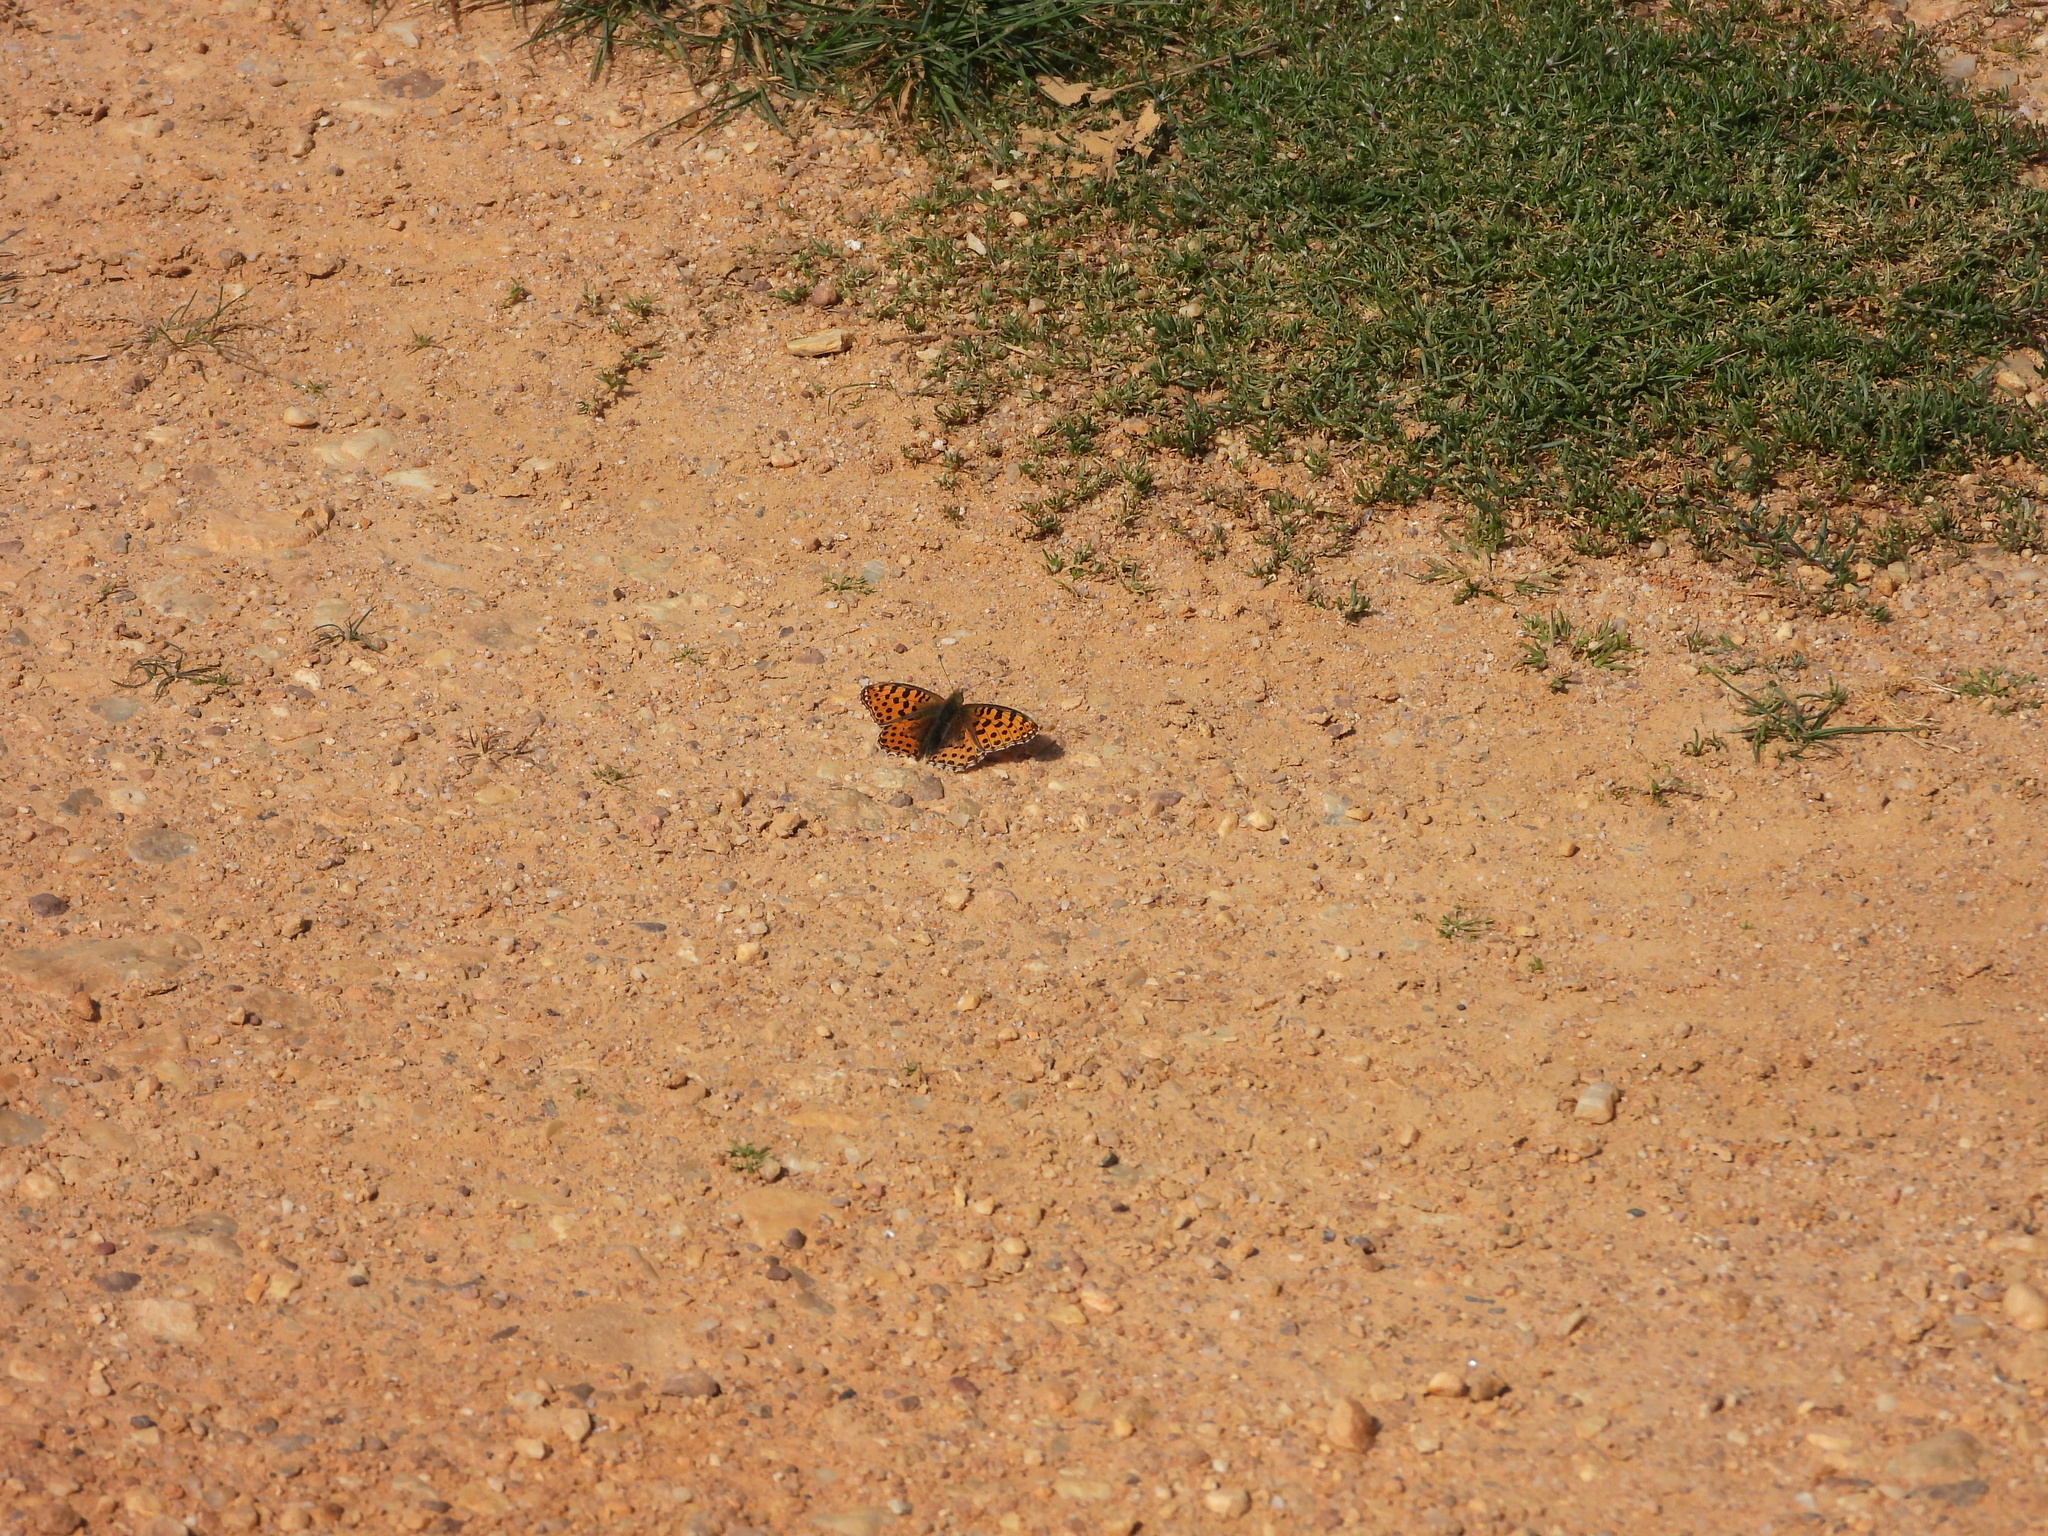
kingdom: Animalia
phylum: Arthropoda
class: Insecta
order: Lepidoptera
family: Nymphalidae
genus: Issoria
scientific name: Issoria lathonia
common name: Queen of spain fritillary
